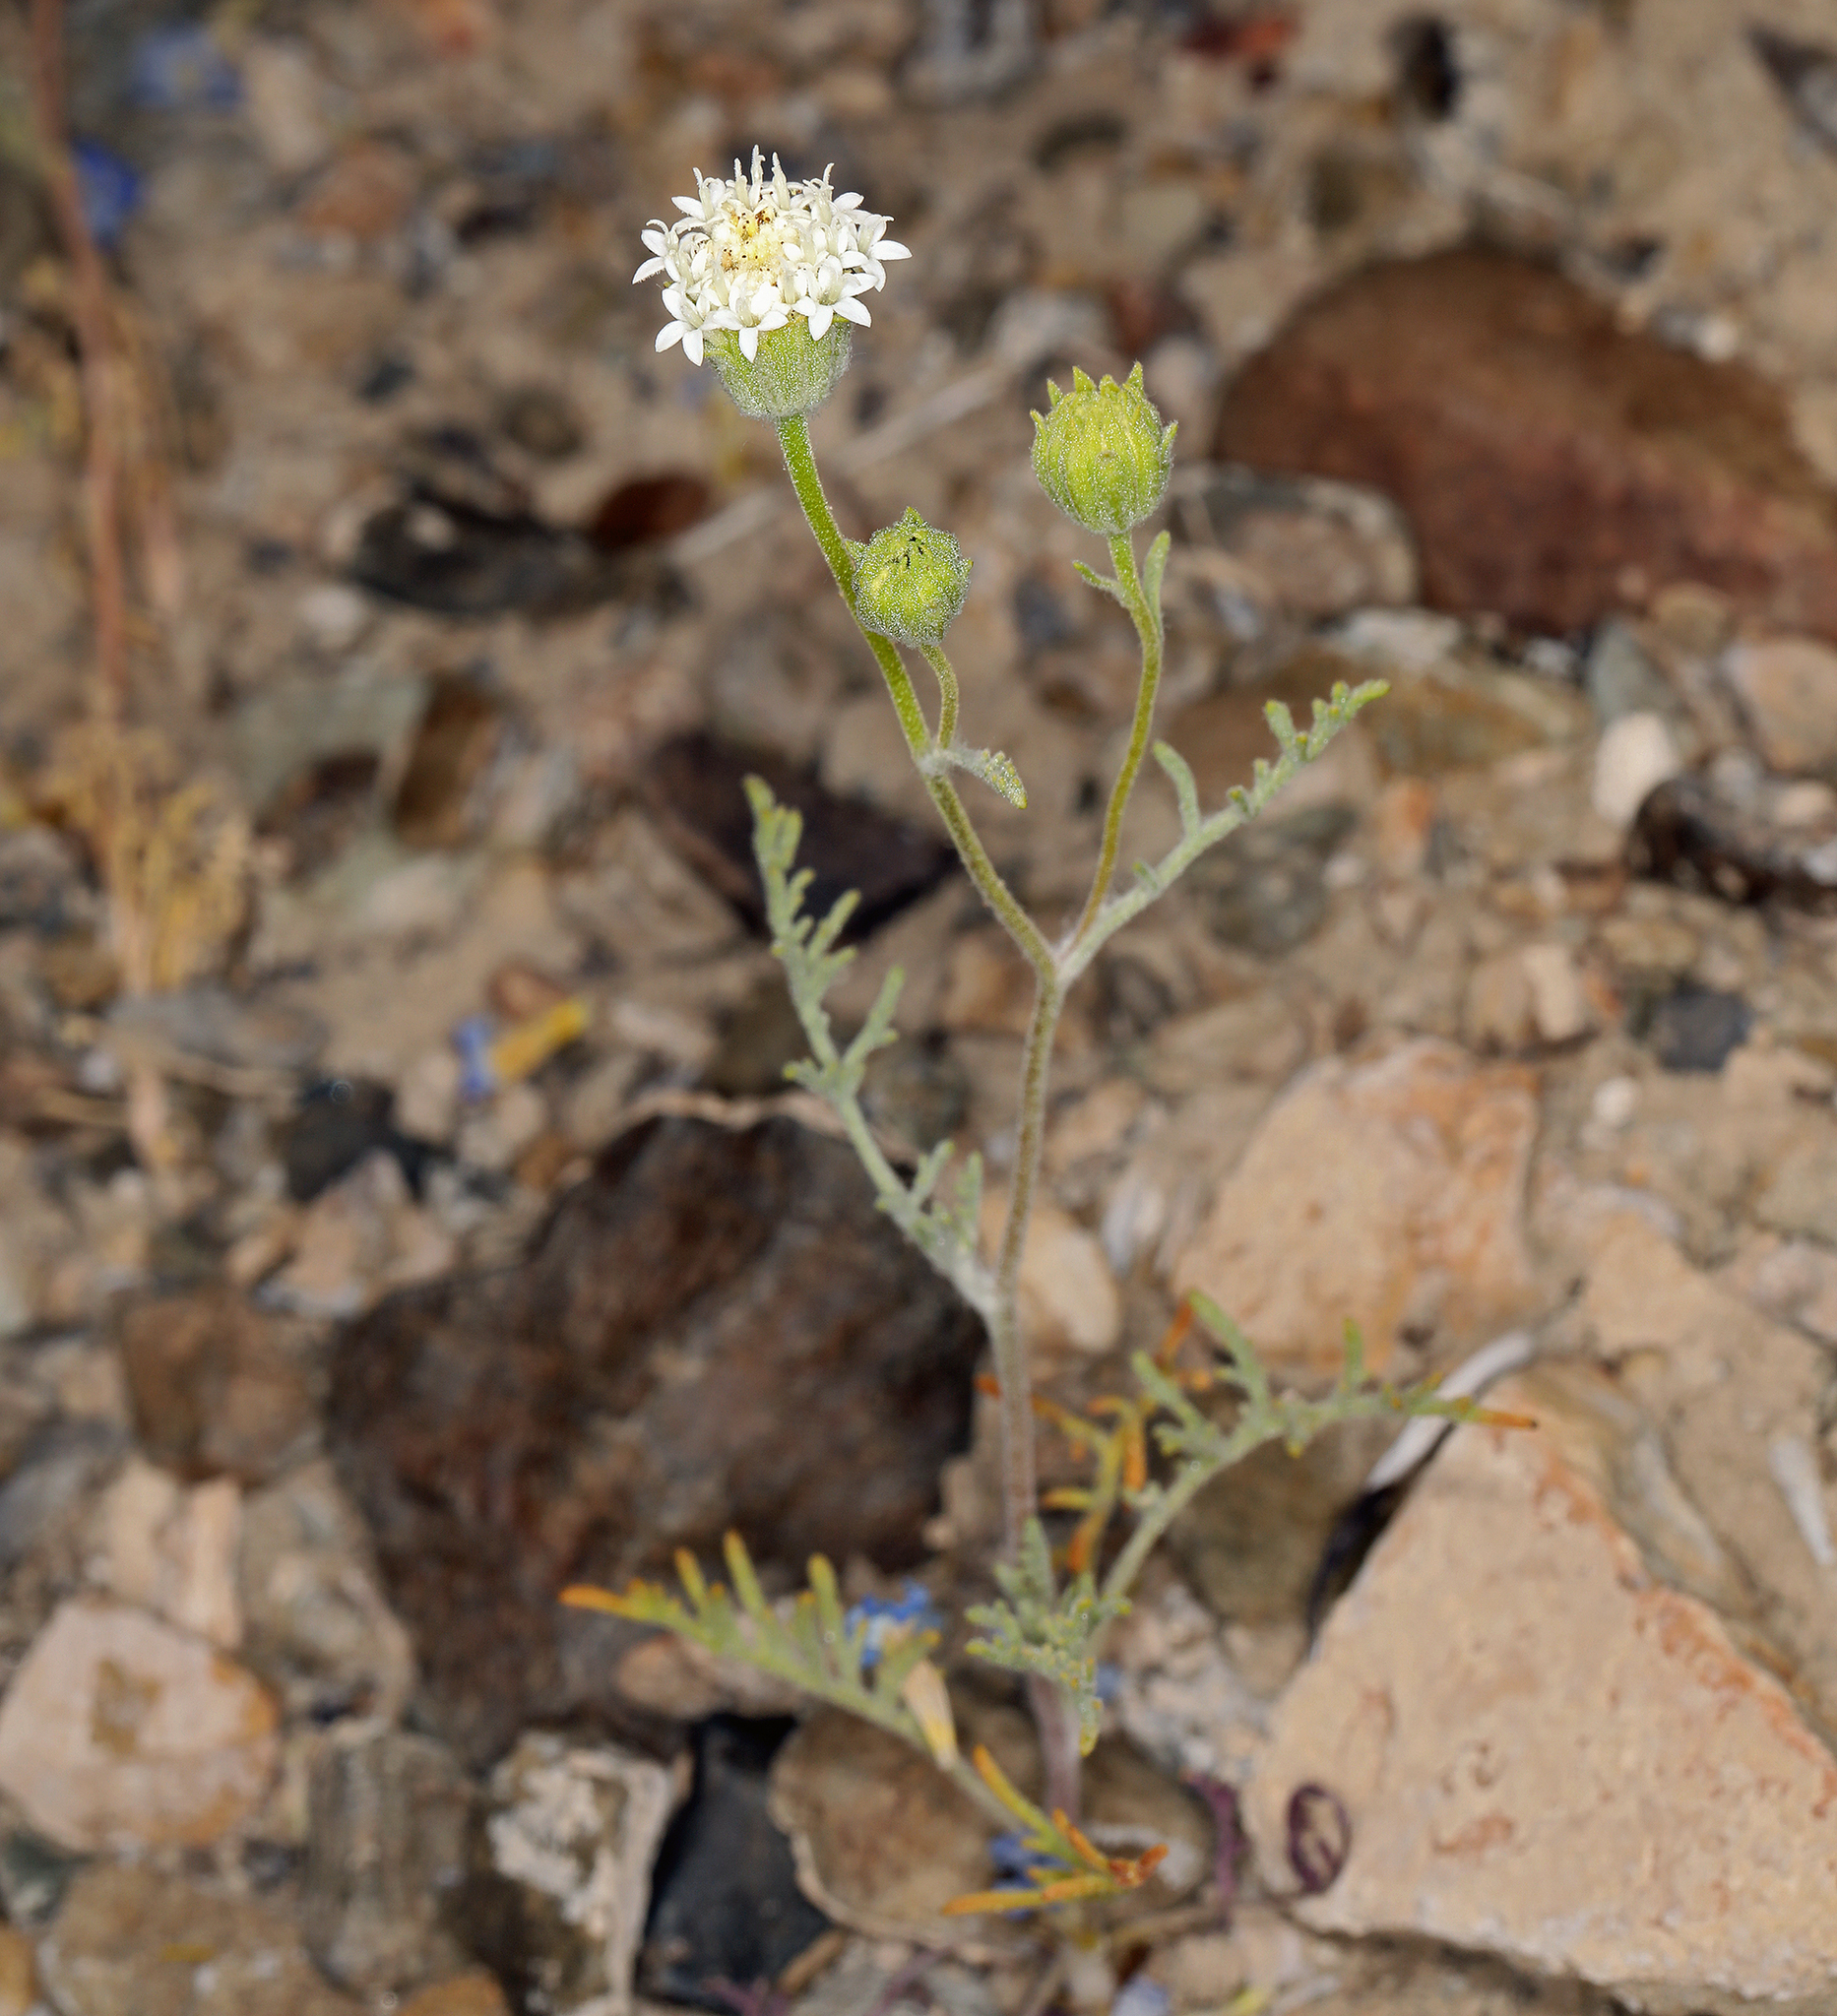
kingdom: Plantae
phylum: Tracheophyta
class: Magnoliopsida
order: Asterales
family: Asteraceae
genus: Chaenactis
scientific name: Chaenactis stevioides
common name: Desert pincushion
